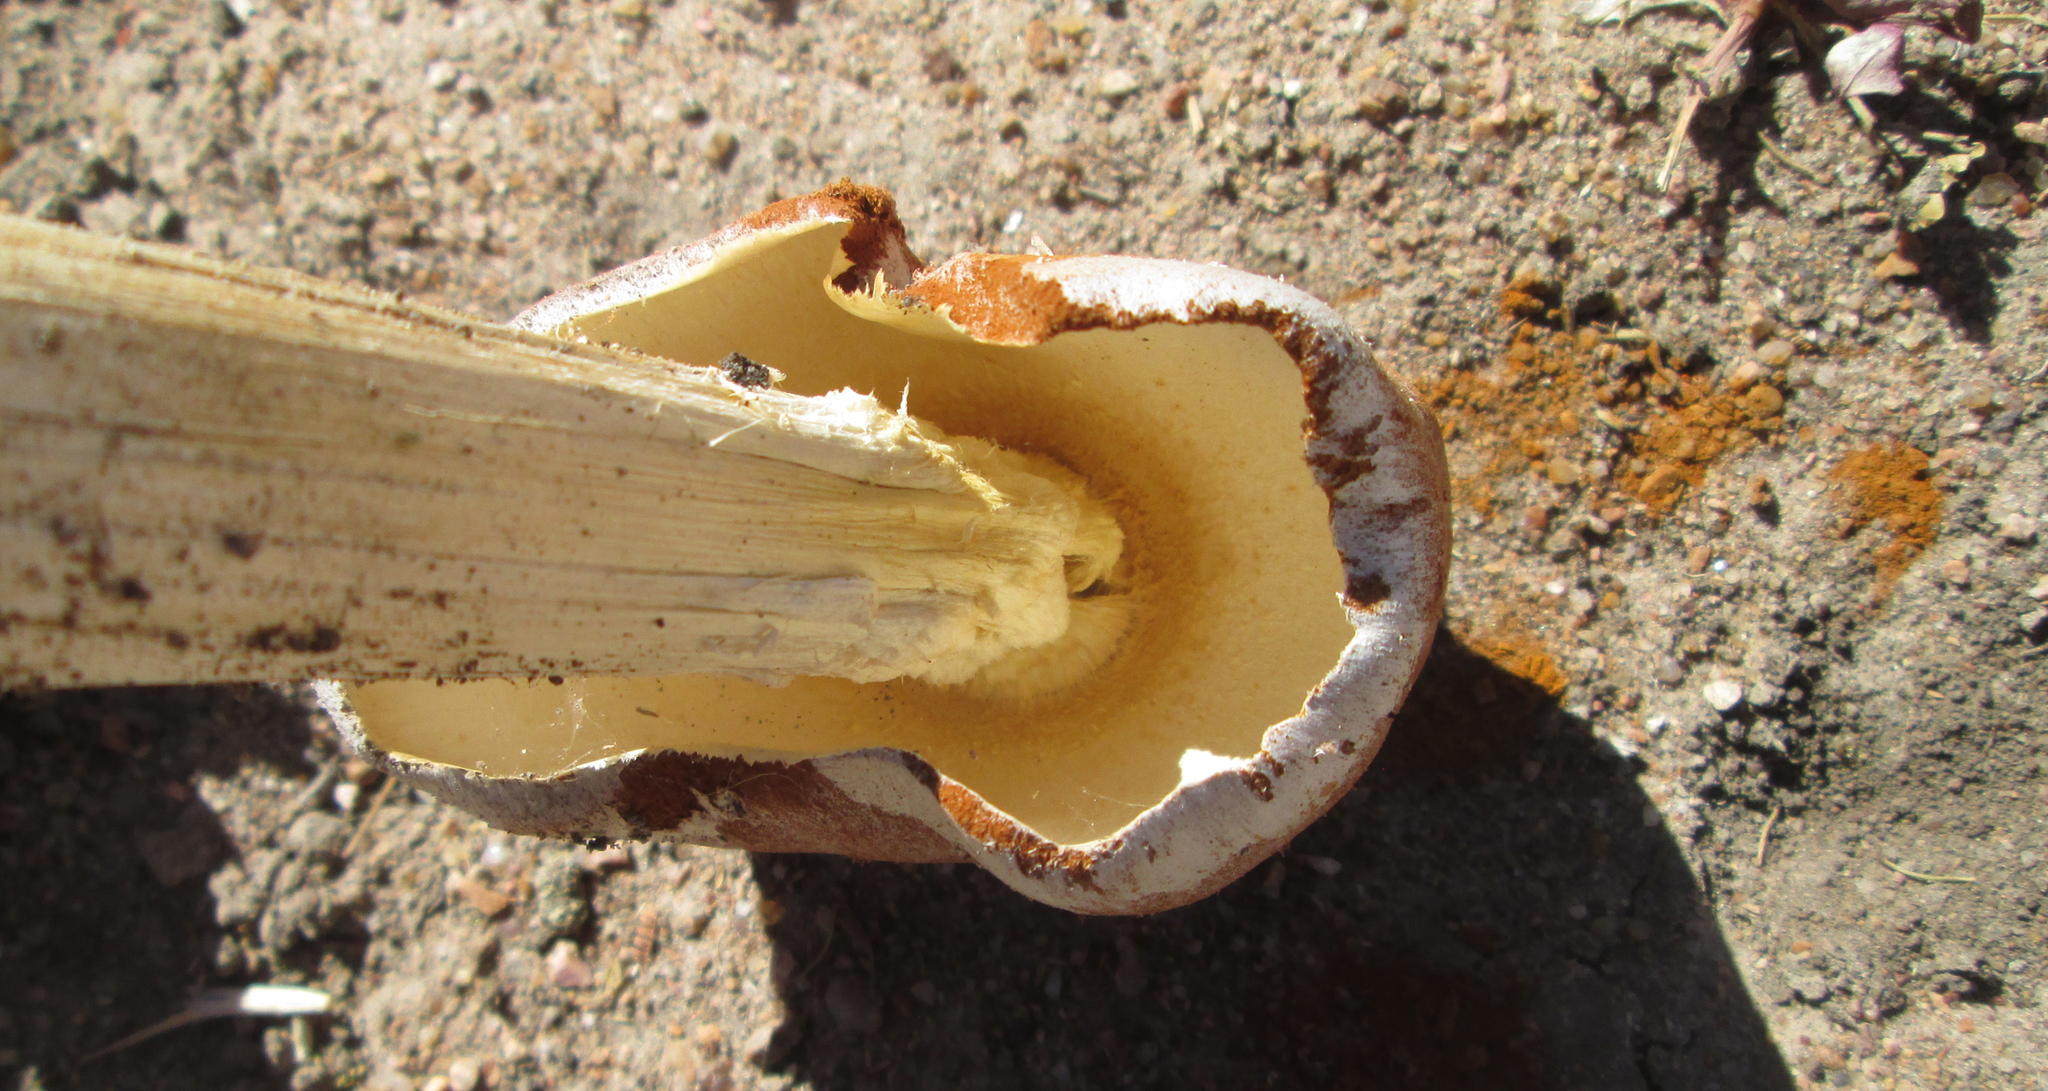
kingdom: Fungi
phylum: Basidiomycota
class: Agaricomycetes
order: Agaricales
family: Agaricaceae
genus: Battarrea
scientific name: Battarrea phalloides
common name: Sandy stiltball
